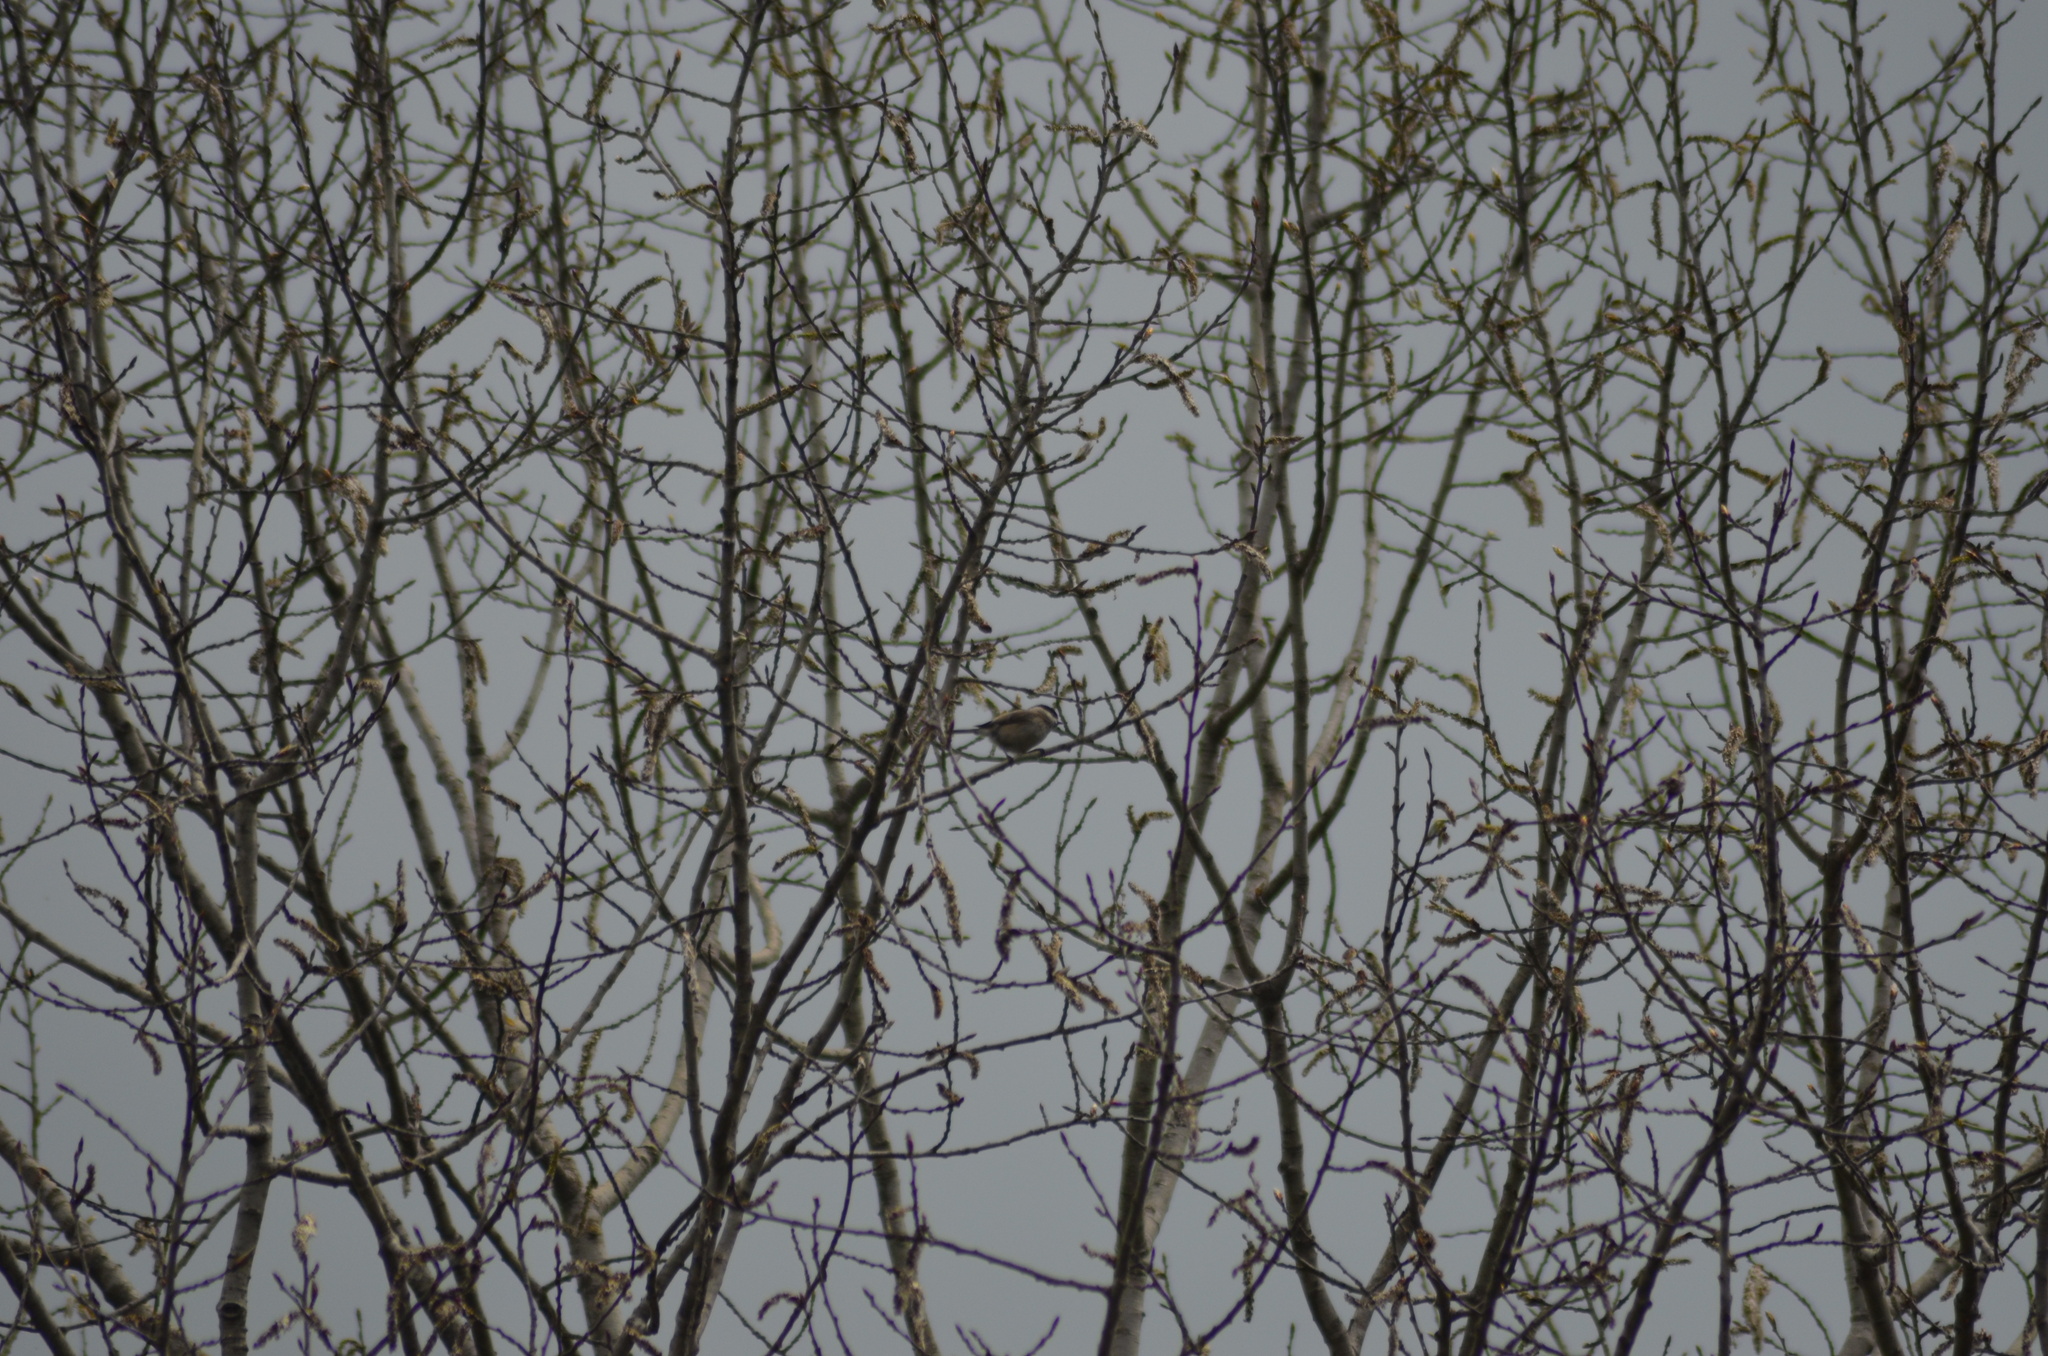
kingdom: Animalia
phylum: Chordata
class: Aves
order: Passeriformes
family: Paridae
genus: Poecile
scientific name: Poecile palustris
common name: Marsh tit
